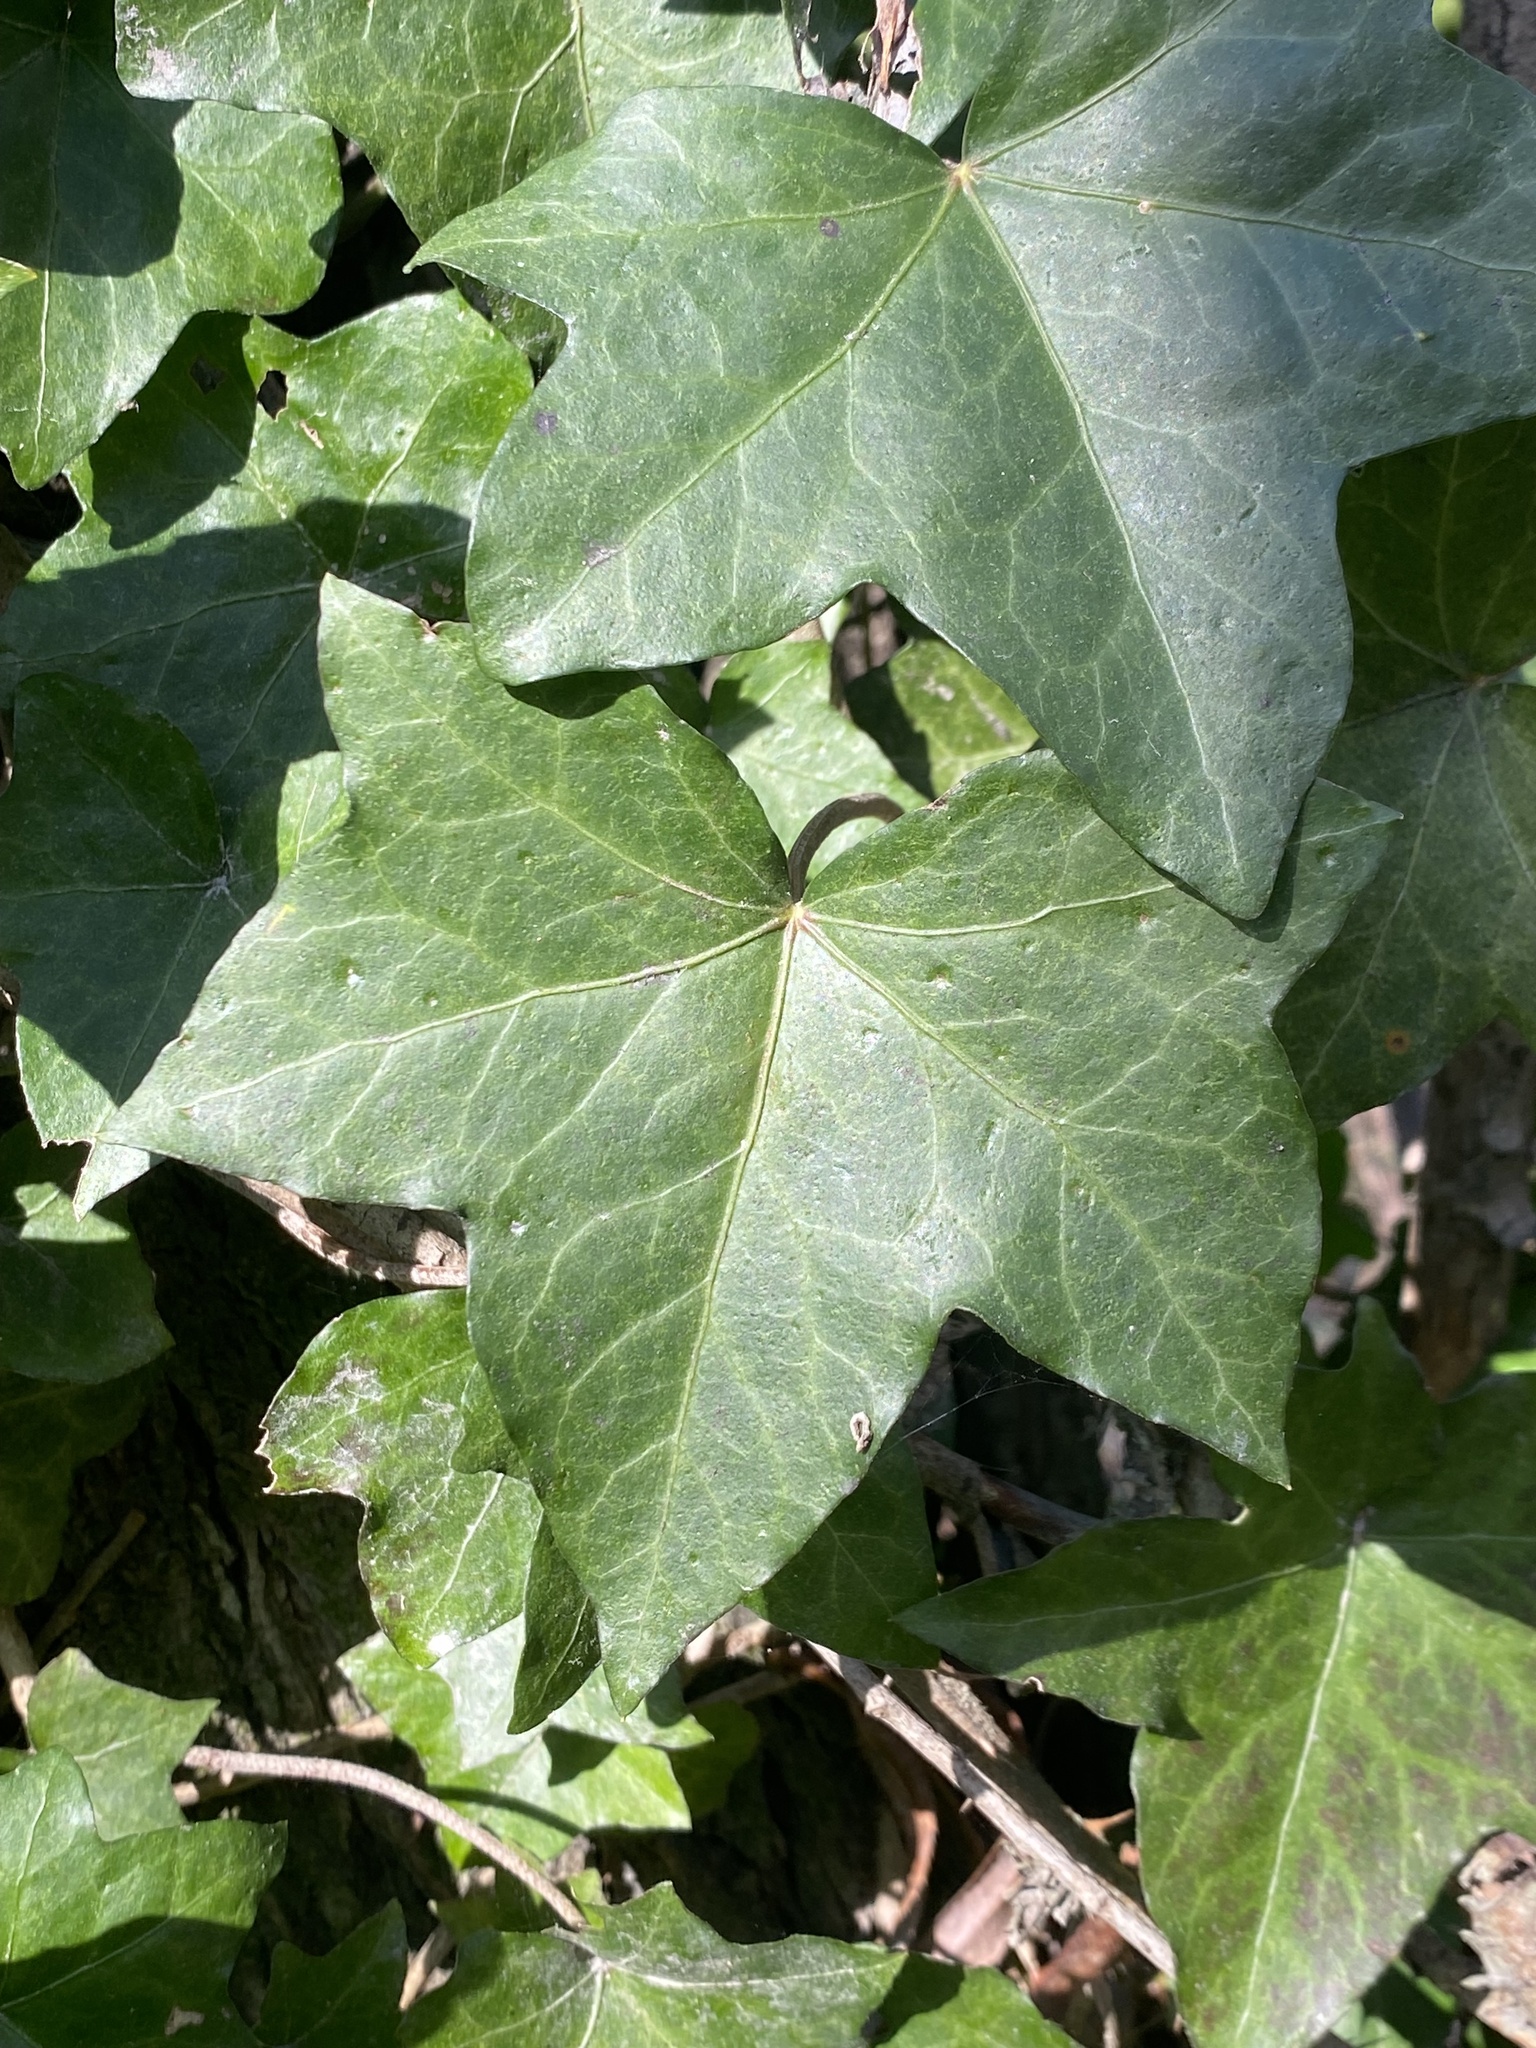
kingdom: Plantae
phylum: Tracheophyta
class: Magnoliopsida
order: Apiales
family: Araliaceae
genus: Hedera
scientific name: Hedera helix
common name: Ivy
